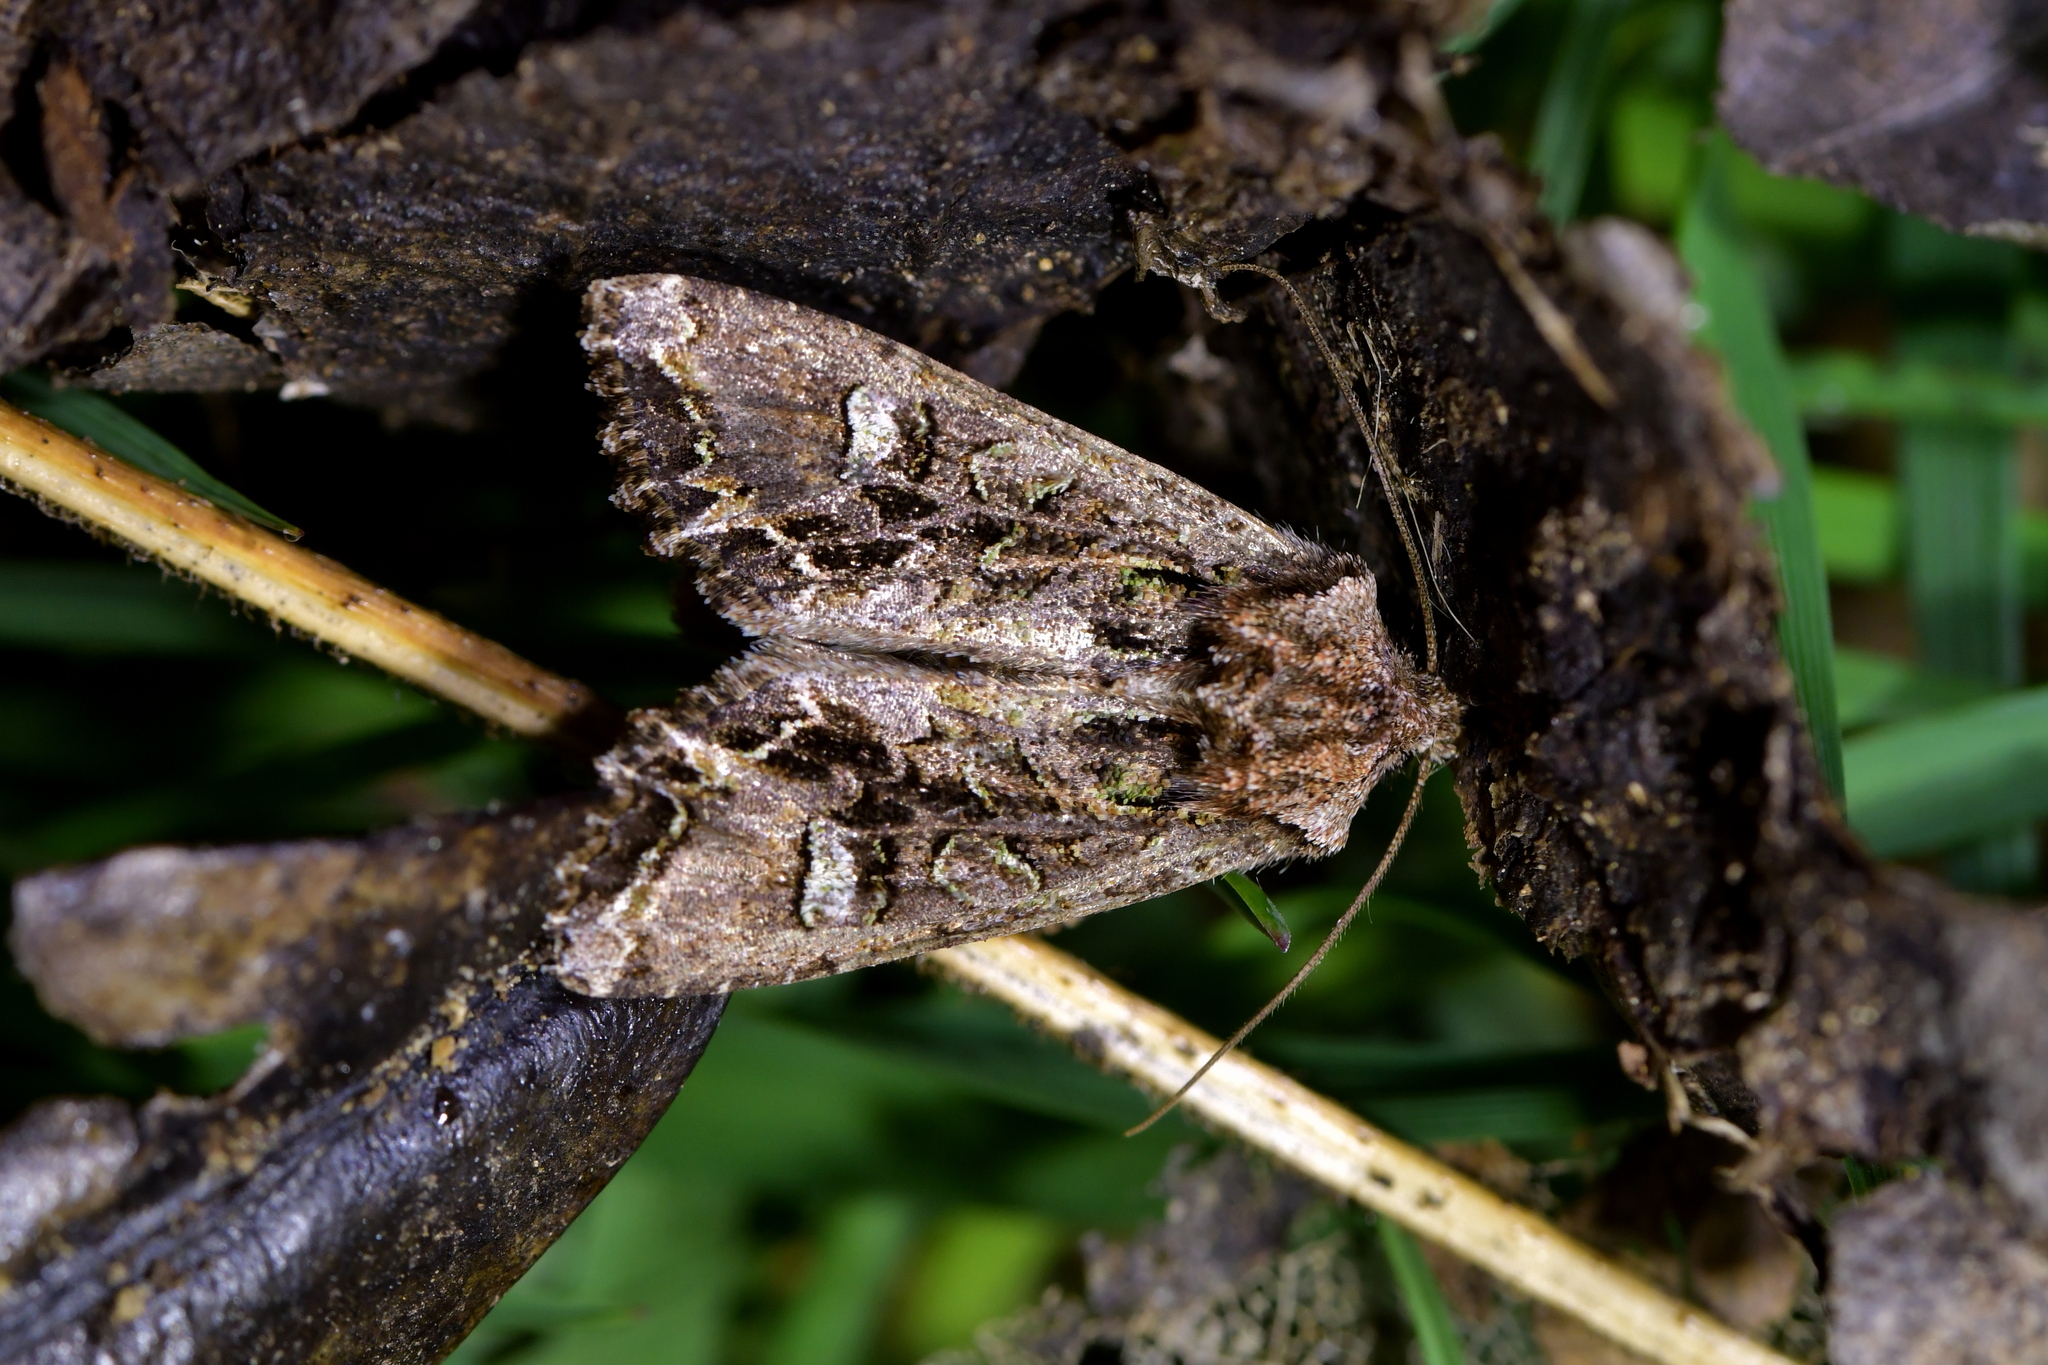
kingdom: Animalia
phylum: Arthropoda
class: Insecta
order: Lepidoptera
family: Noctuidae
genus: Ichneutica
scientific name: Ichneutica insignis
